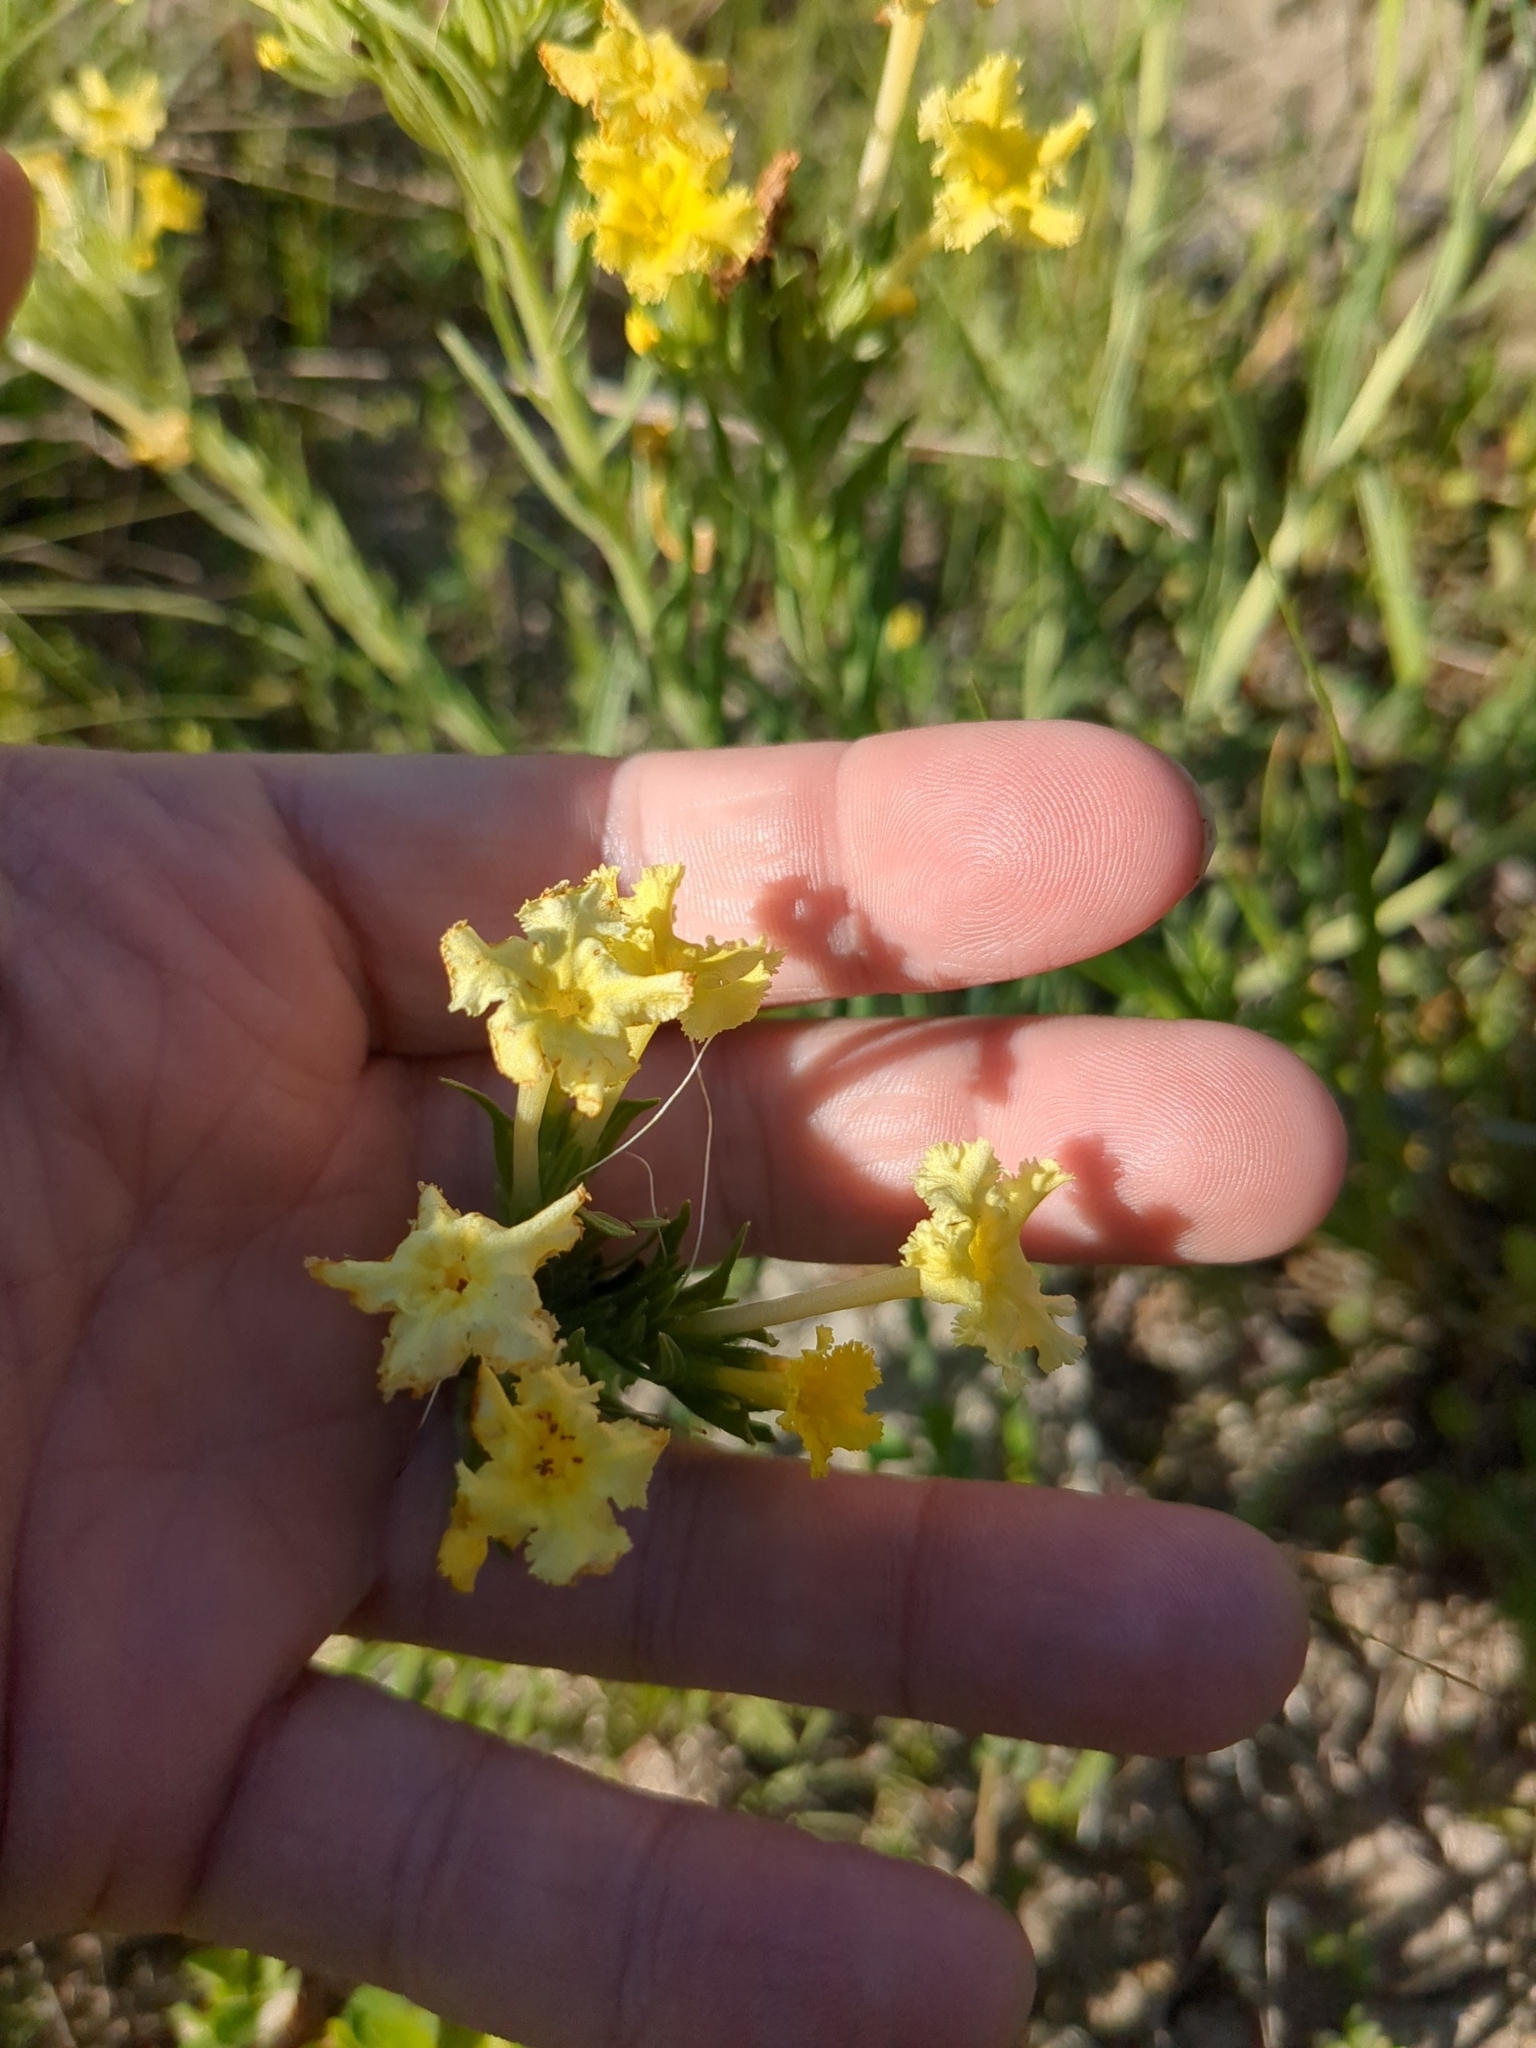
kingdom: Plantae
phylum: Tracheophyta
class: Magnoliopsida
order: Boraginales
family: Boraginaceae
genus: Lithospermum
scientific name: Lithospermum incisum
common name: Fringed gromwell
